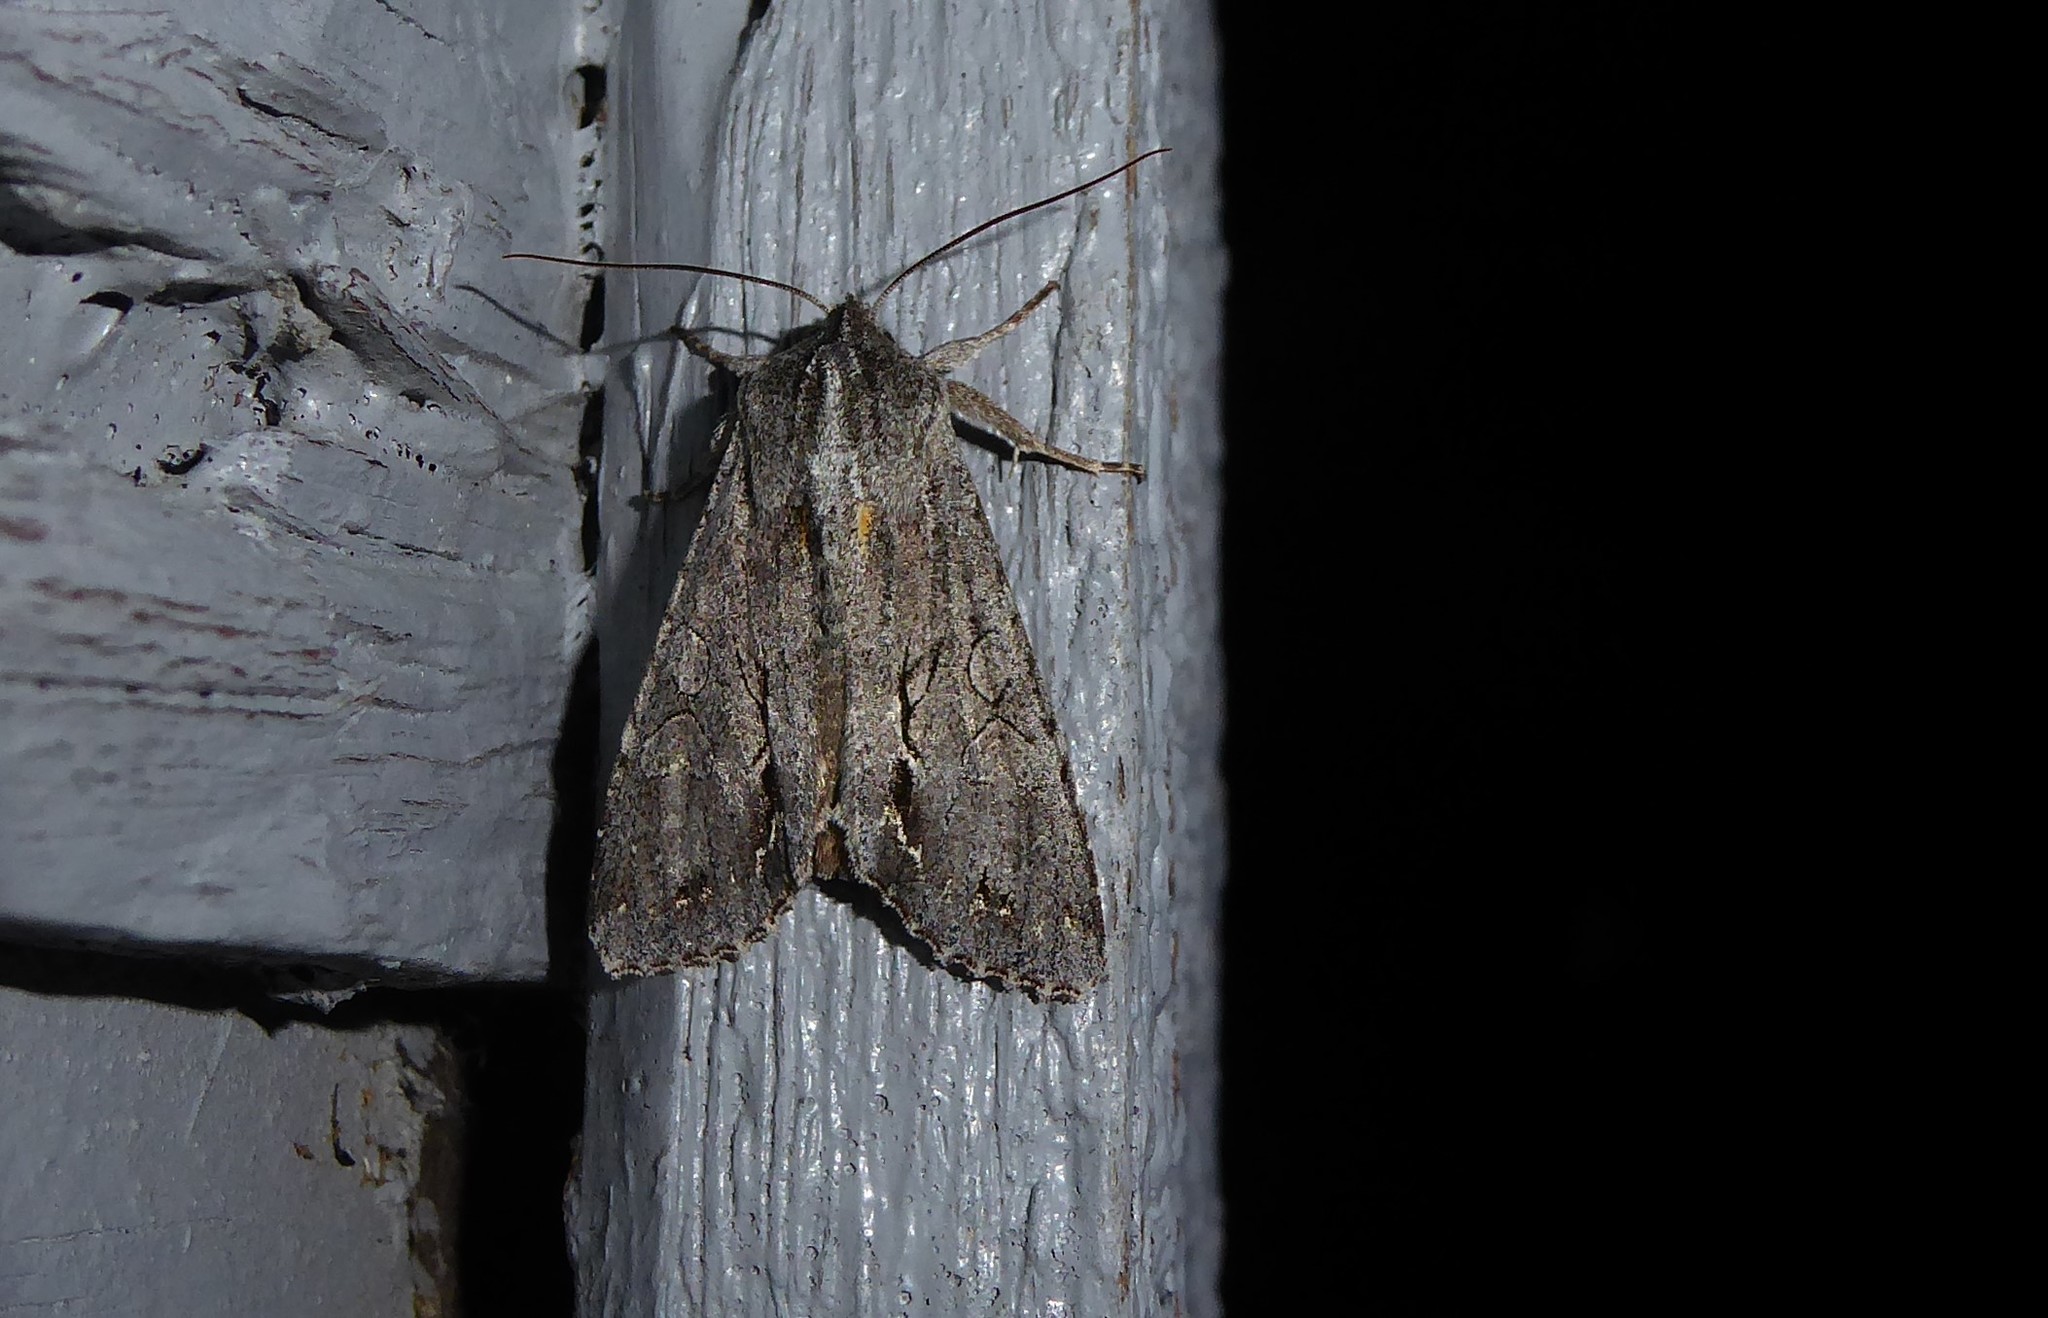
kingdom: Animalia
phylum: Arthropoda
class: Insecta
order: Lepidoptera
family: Noctuidae
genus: Ichneutica
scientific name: Ichneutica
